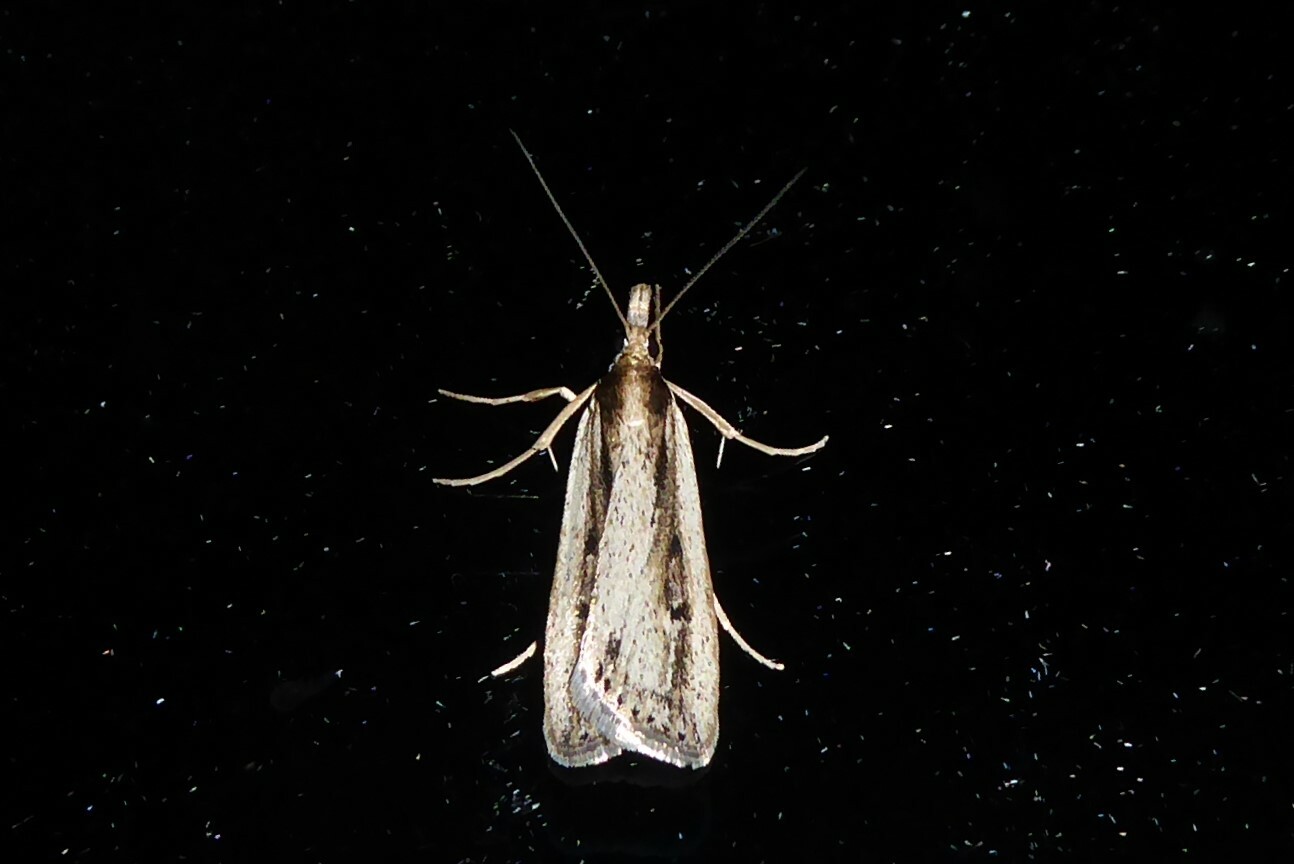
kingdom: Animalia
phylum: Arthropoda
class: Insecta
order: Lepidoptera
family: Crambidae
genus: Eudonia
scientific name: Eudonia sabulosella
